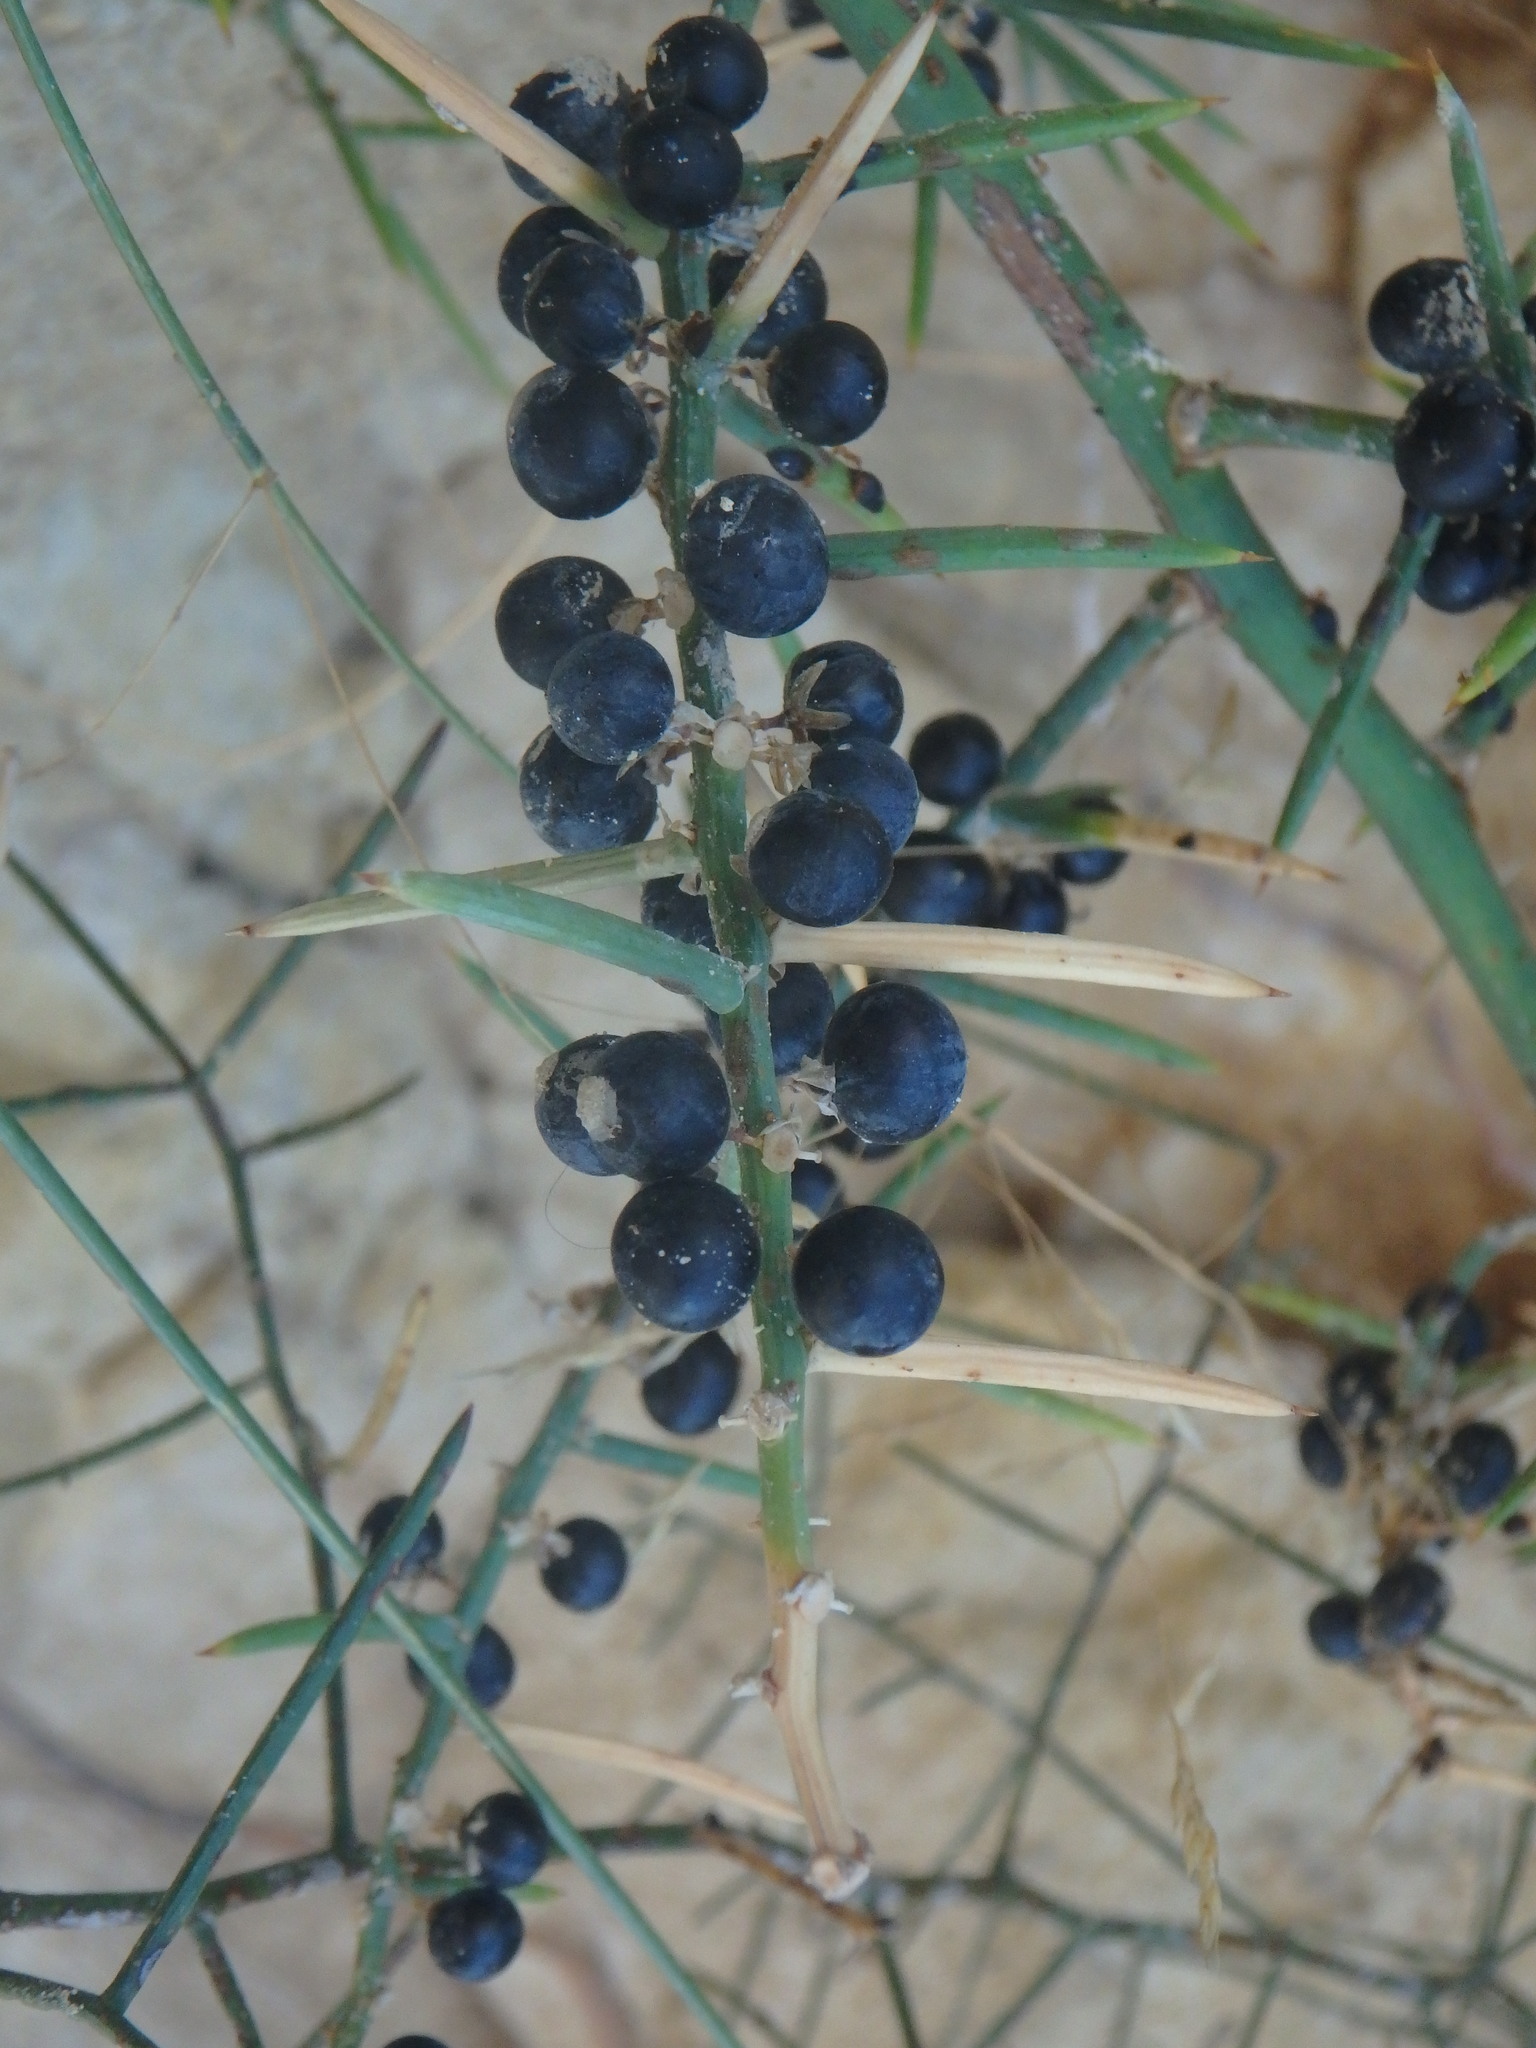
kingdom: Plantae
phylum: Tracheophyta
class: Liliopsida
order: Asparagales
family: Asparagaceae
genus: Asparagus
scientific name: Asparagus horridus
